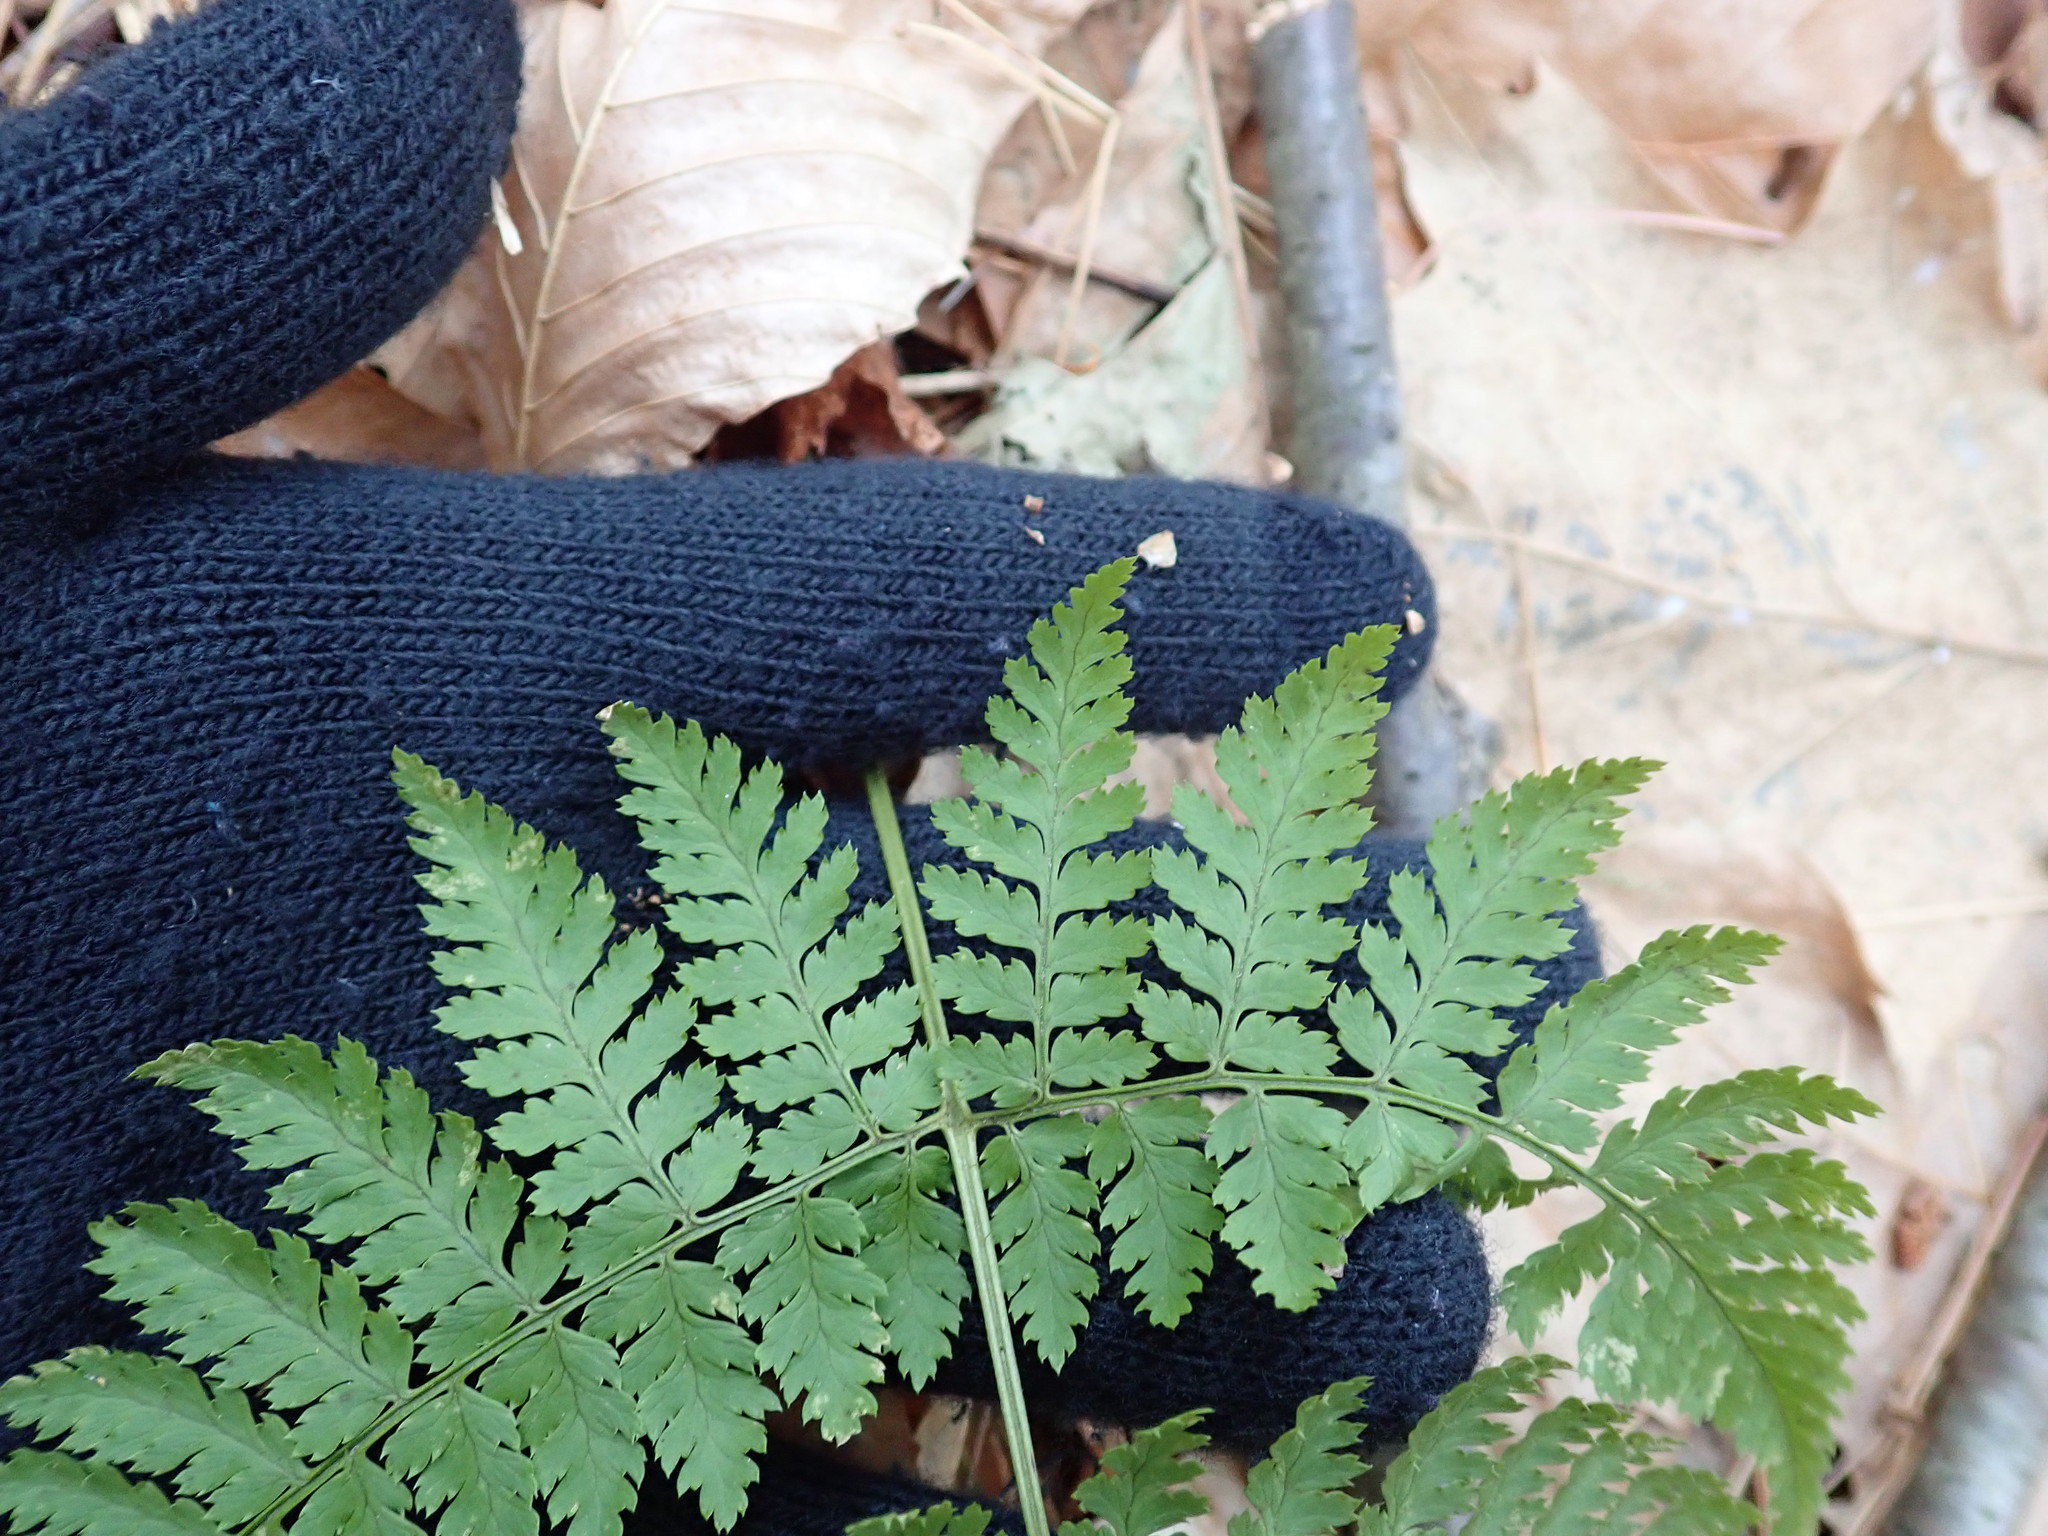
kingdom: Plantae
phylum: Tracheophyta
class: Polypodiopsida
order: Polypodiales
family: Dryopteridaceae
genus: Dryopteris
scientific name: Dryopteris intermedia
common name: Evergreen wood fern
